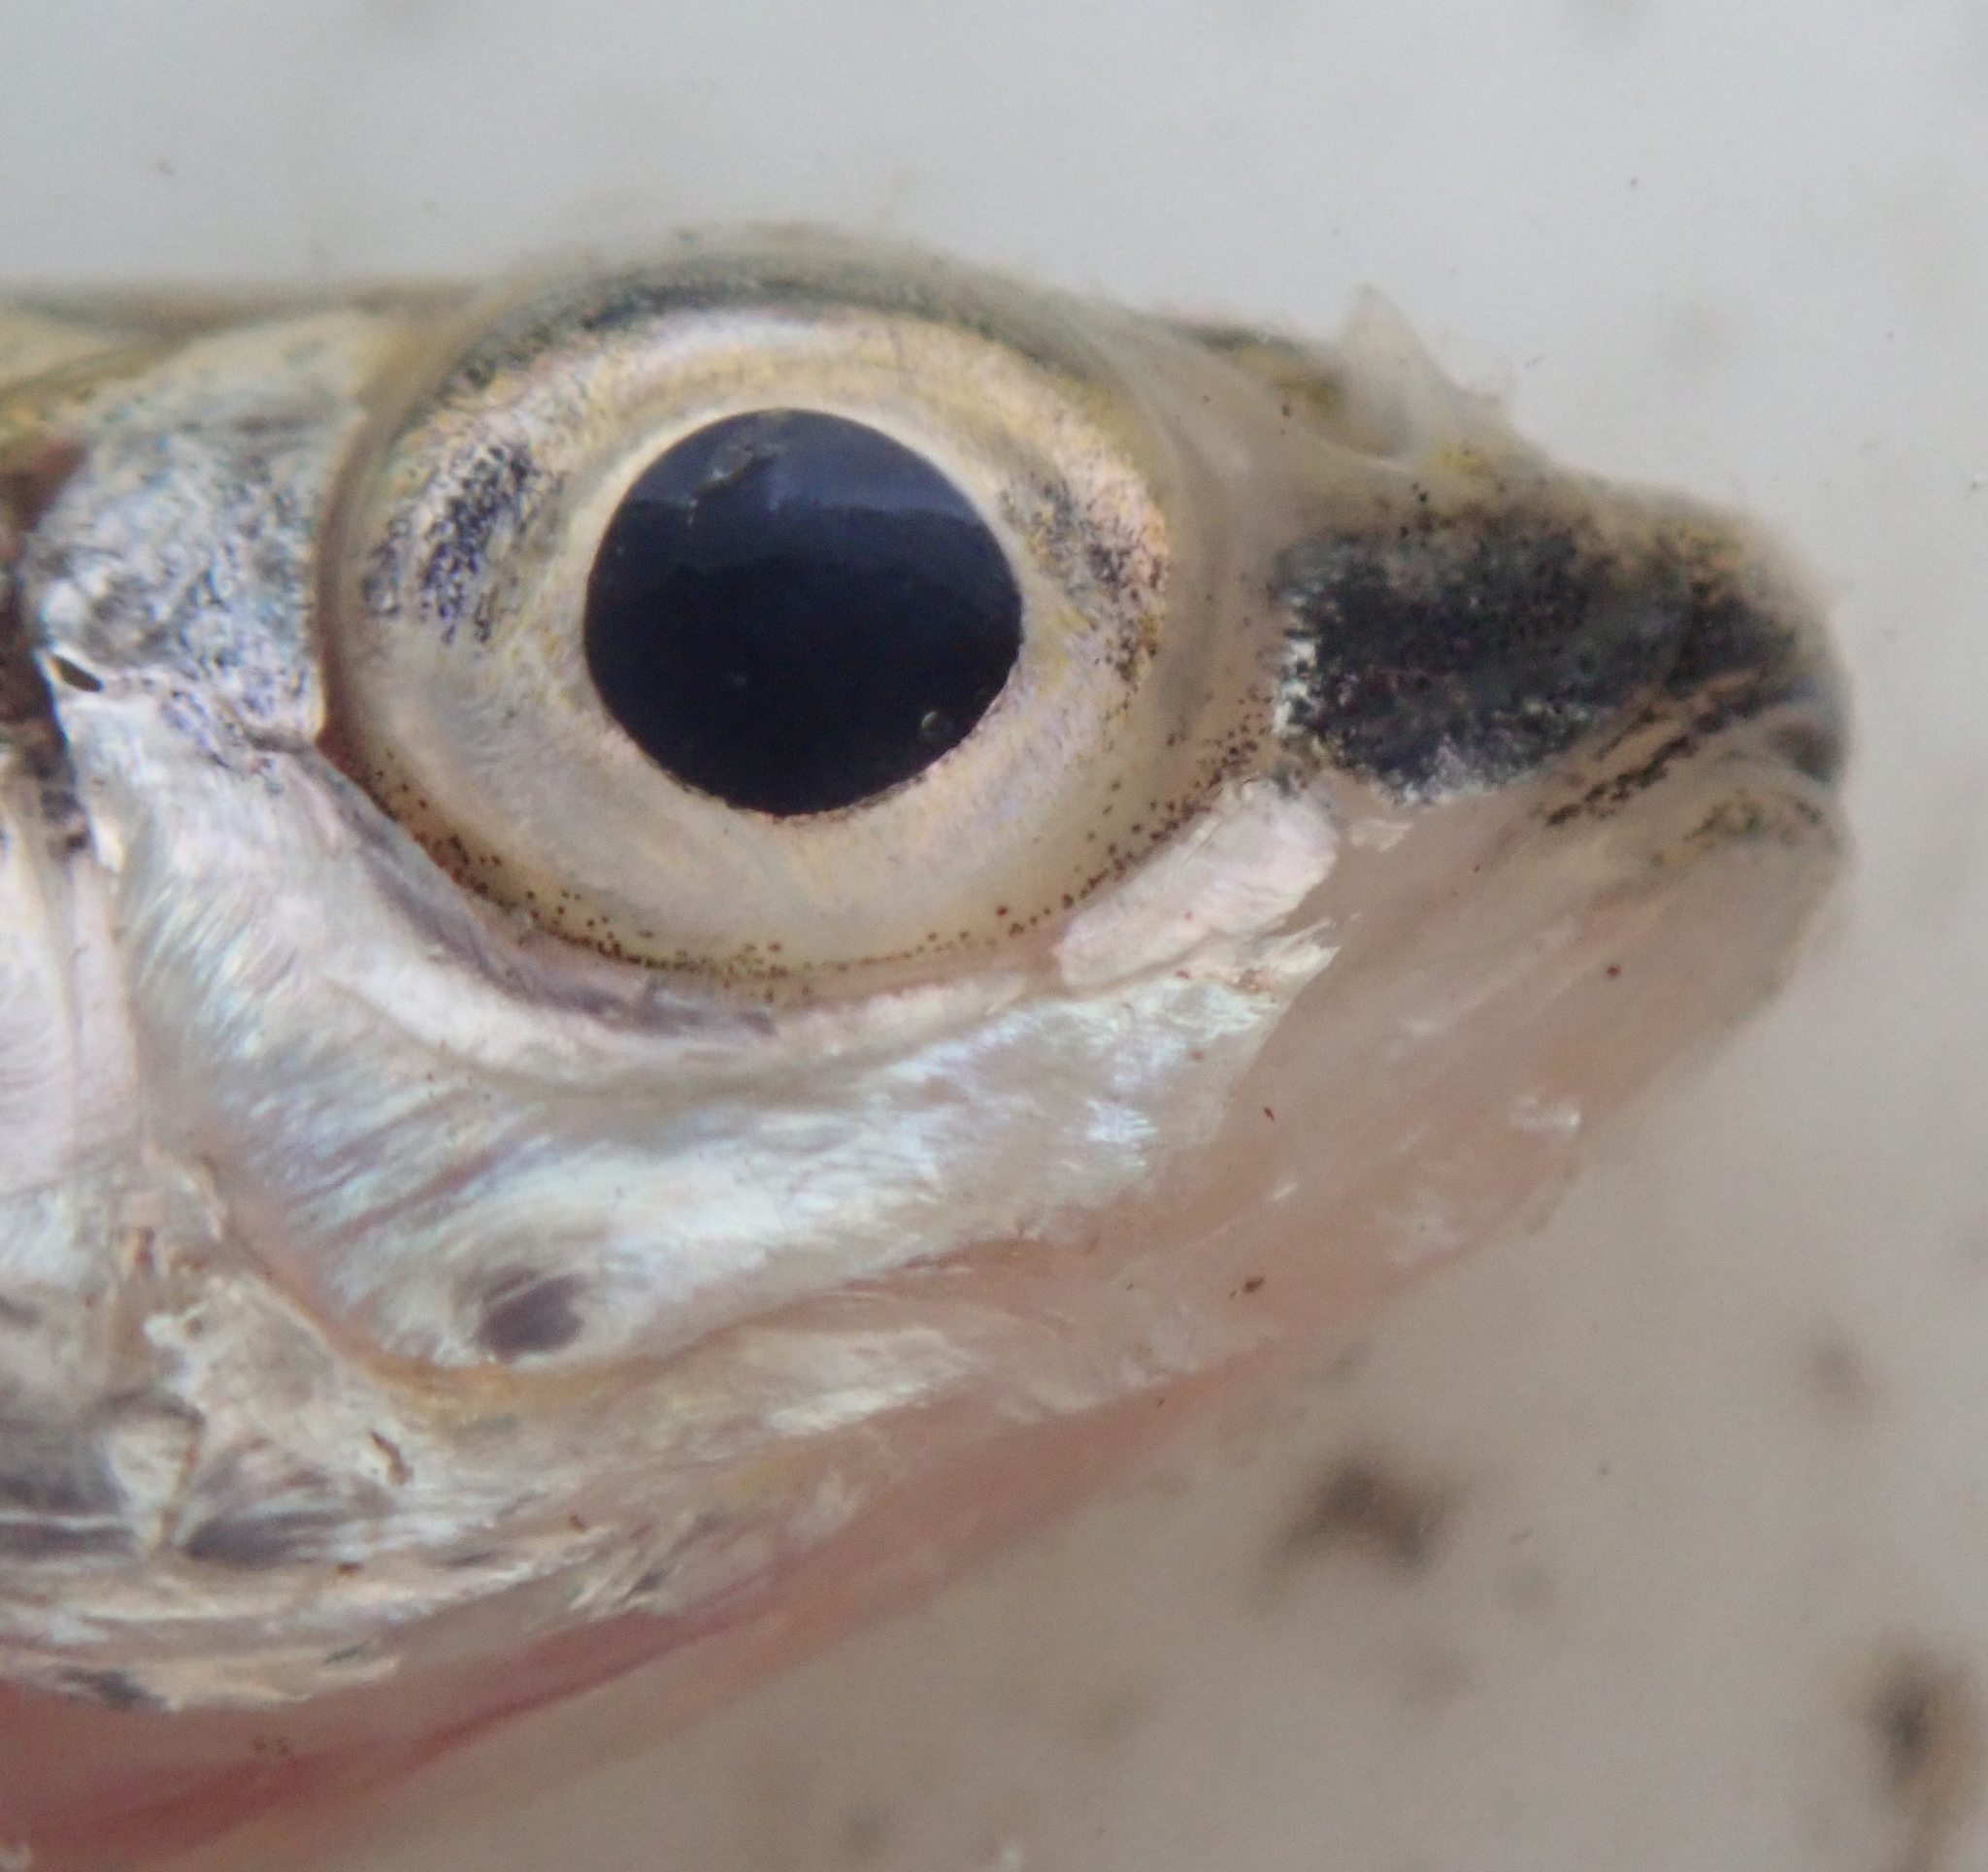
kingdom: Animalia
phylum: Chordata
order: Cypriniformes
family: Cyprinidae
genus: Enteromius
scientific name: Enteromius barnardi
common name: Blackback barb
